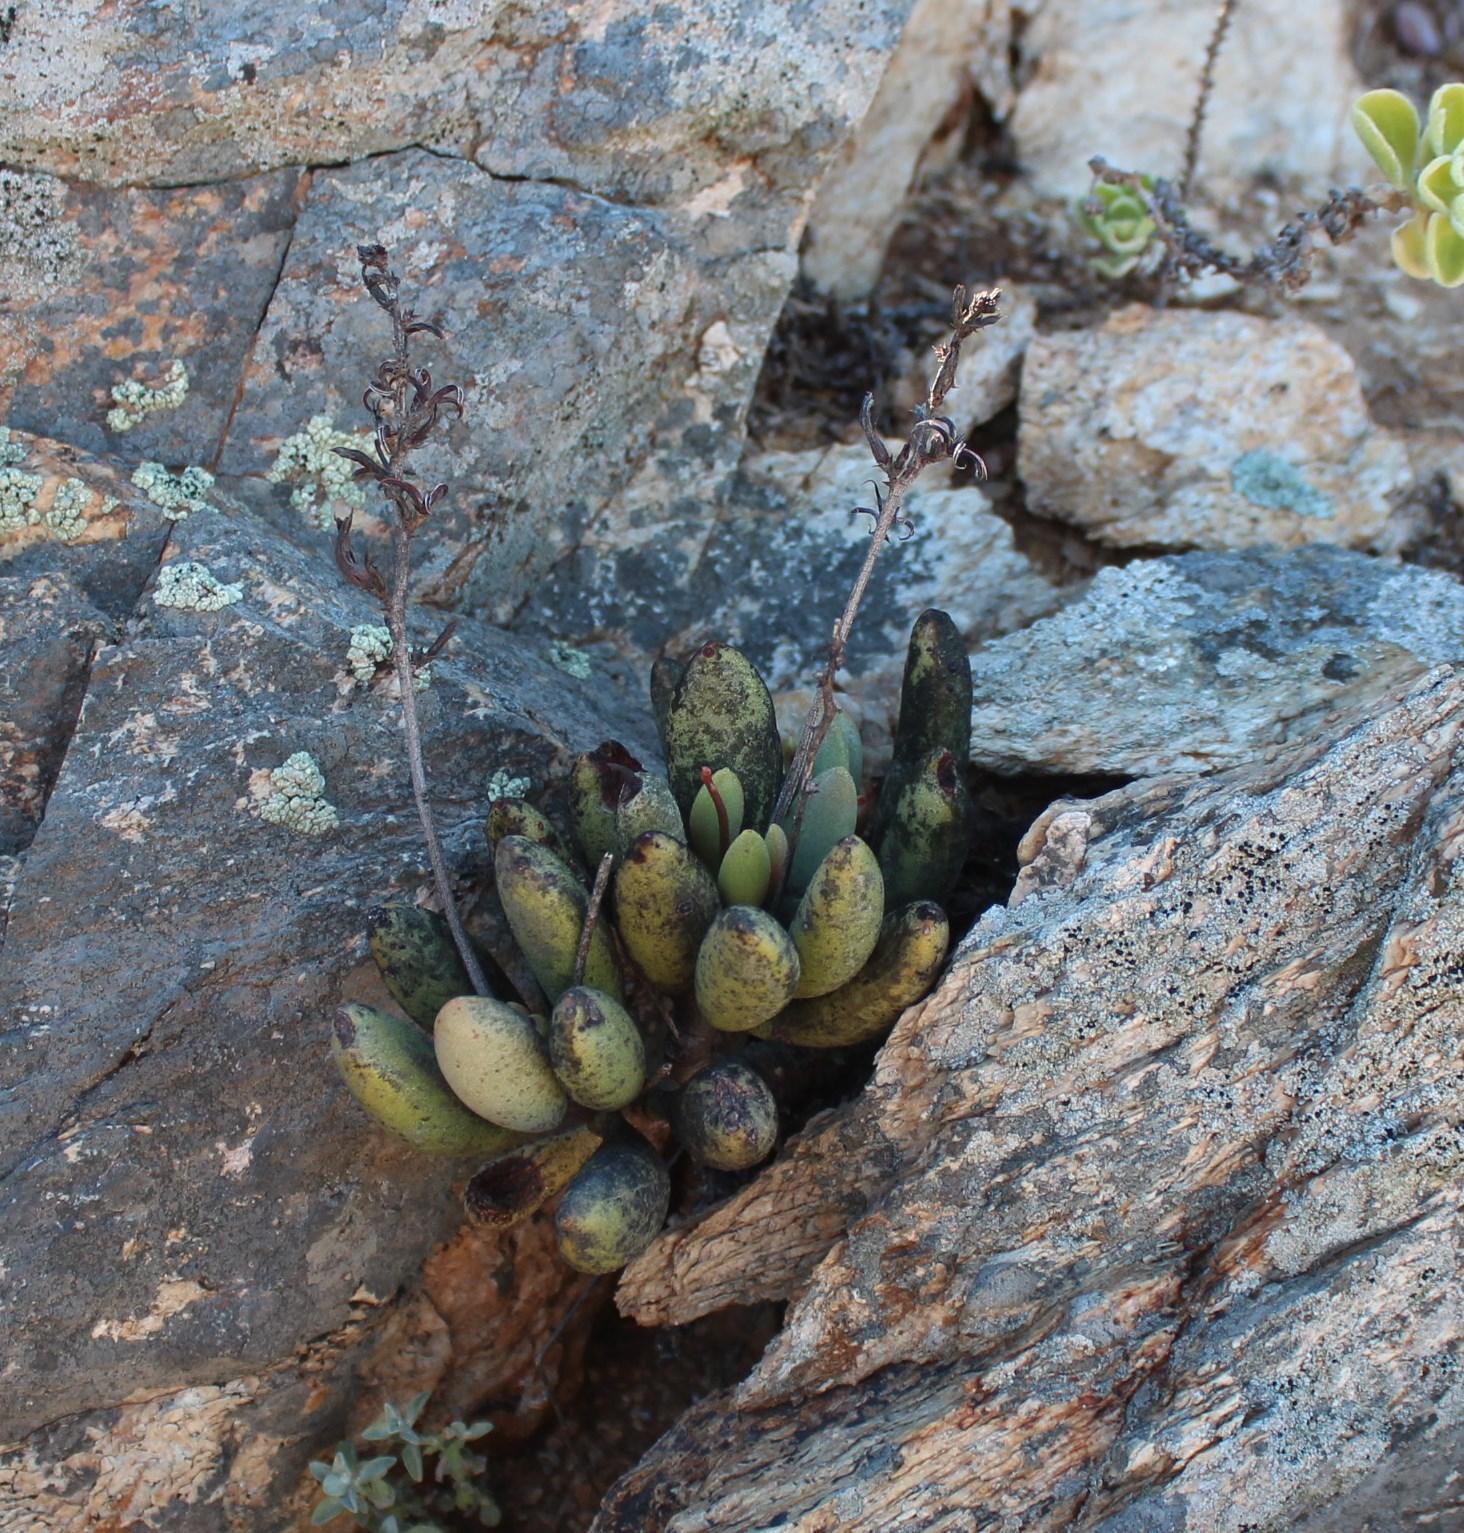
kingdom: Plantae
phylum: Tracheophyta
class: Magnoliopsida
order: Saxifragales
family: Crassulaceae
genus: Adromischus
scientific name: Adromischus marianiae
